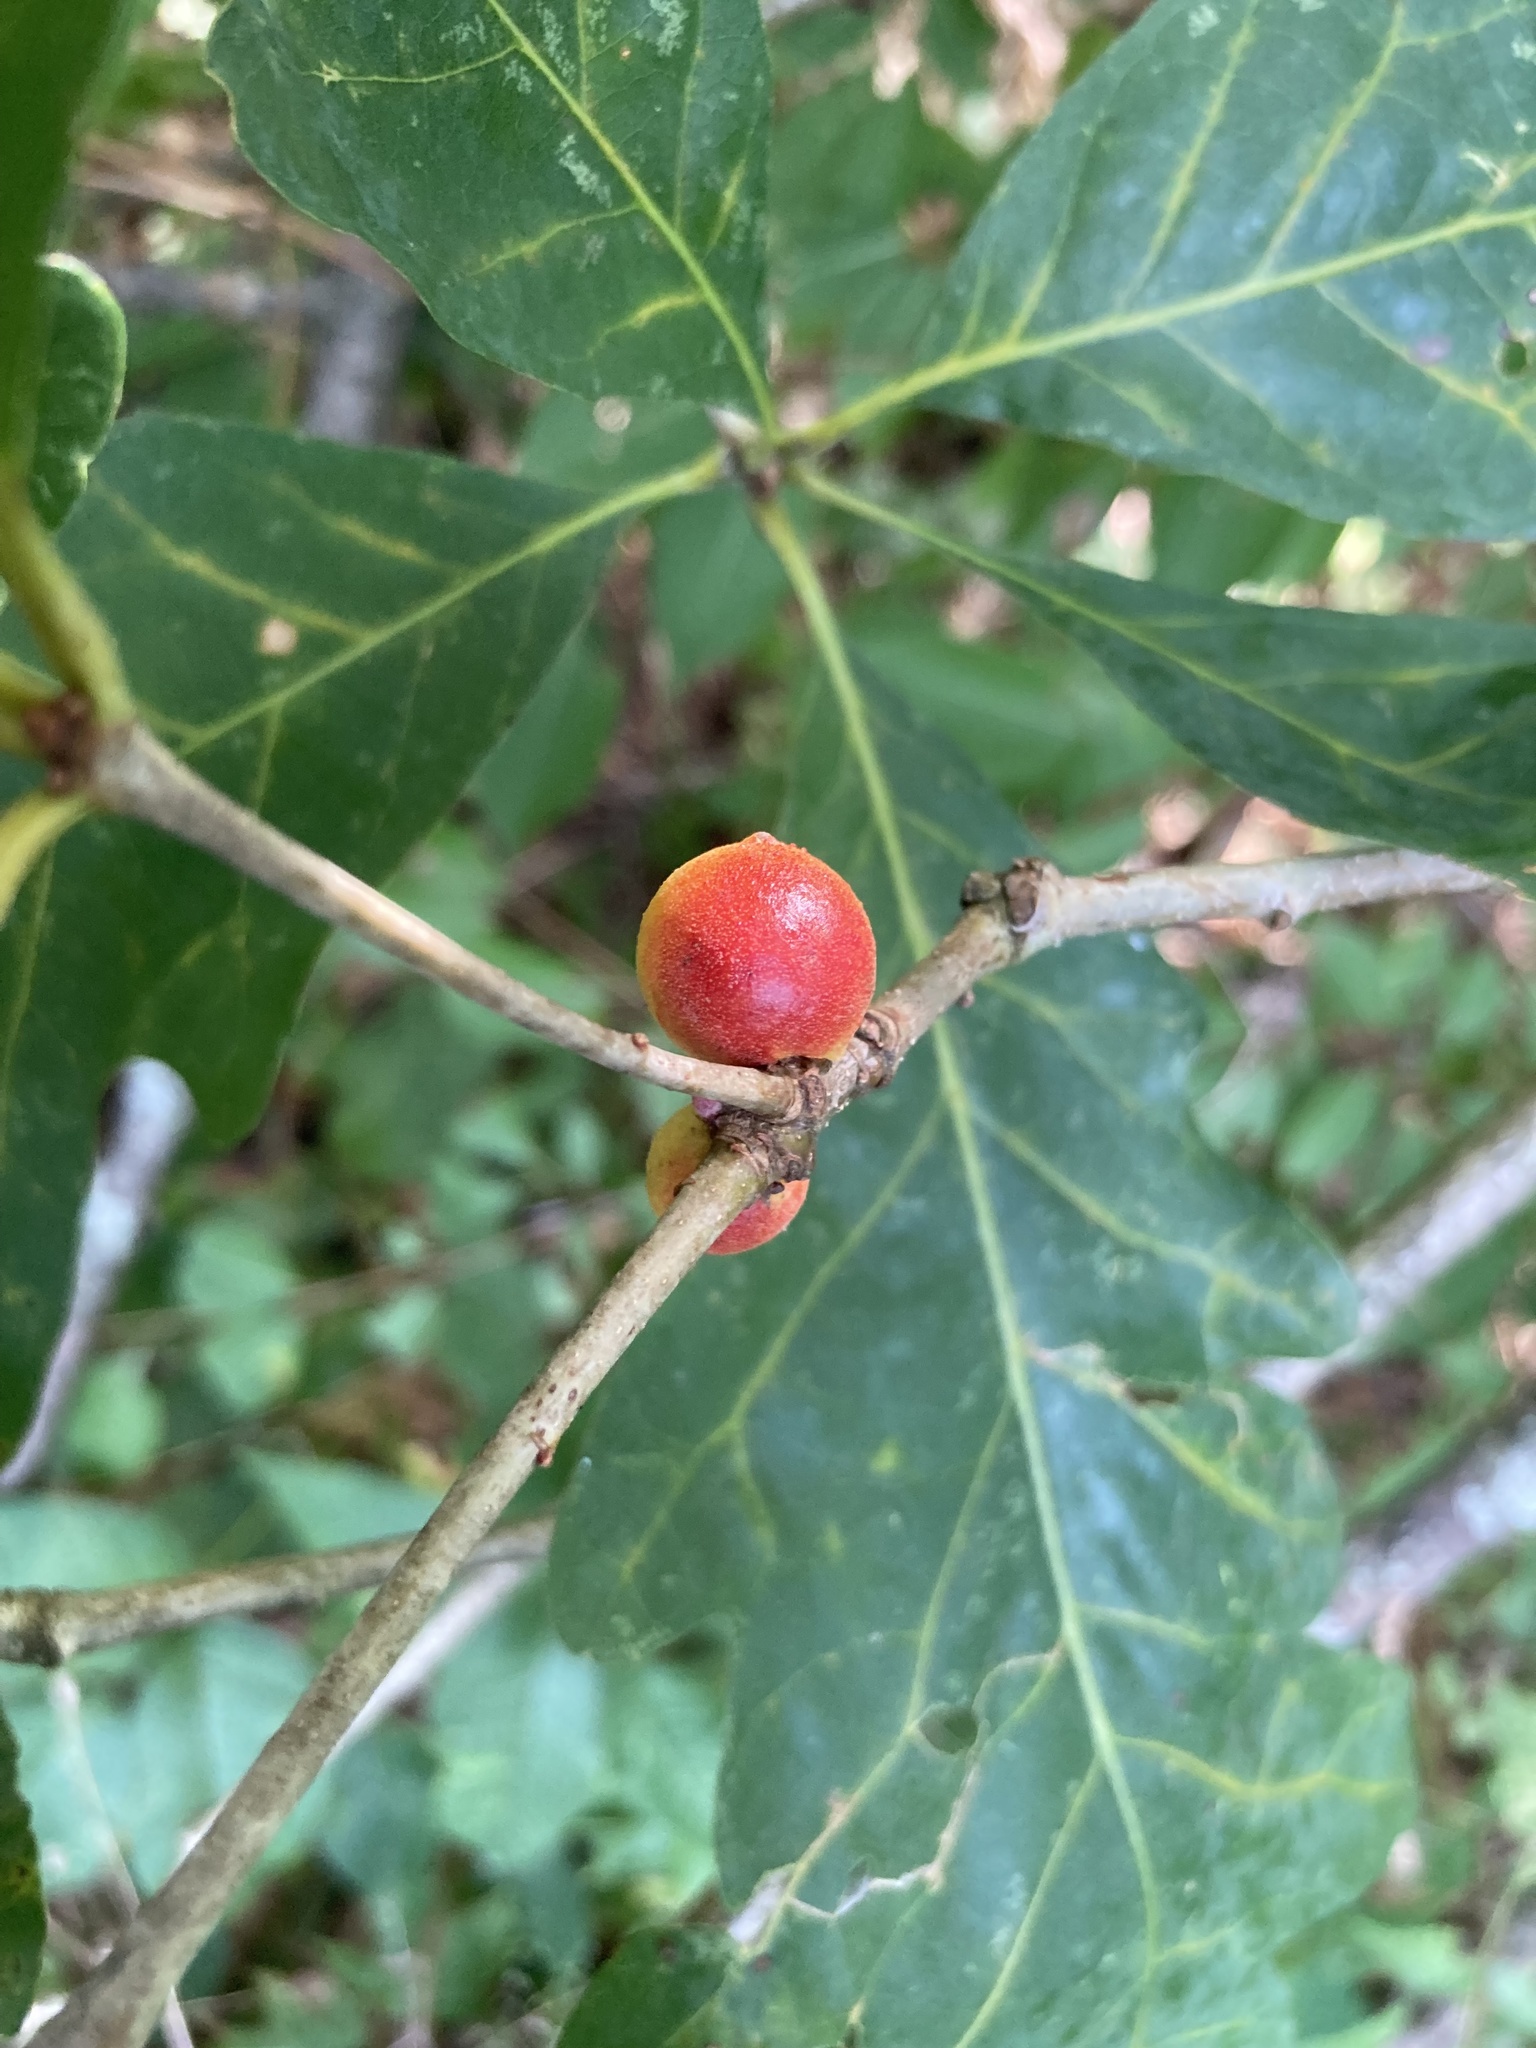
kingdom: Animalia
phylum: Arthropoda
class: Insecta
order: Hymenoptera
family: Cynipidae
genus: Disholcaspis
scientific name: Disholcaspis quercusglobulus
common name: Round bullet gall wasp
